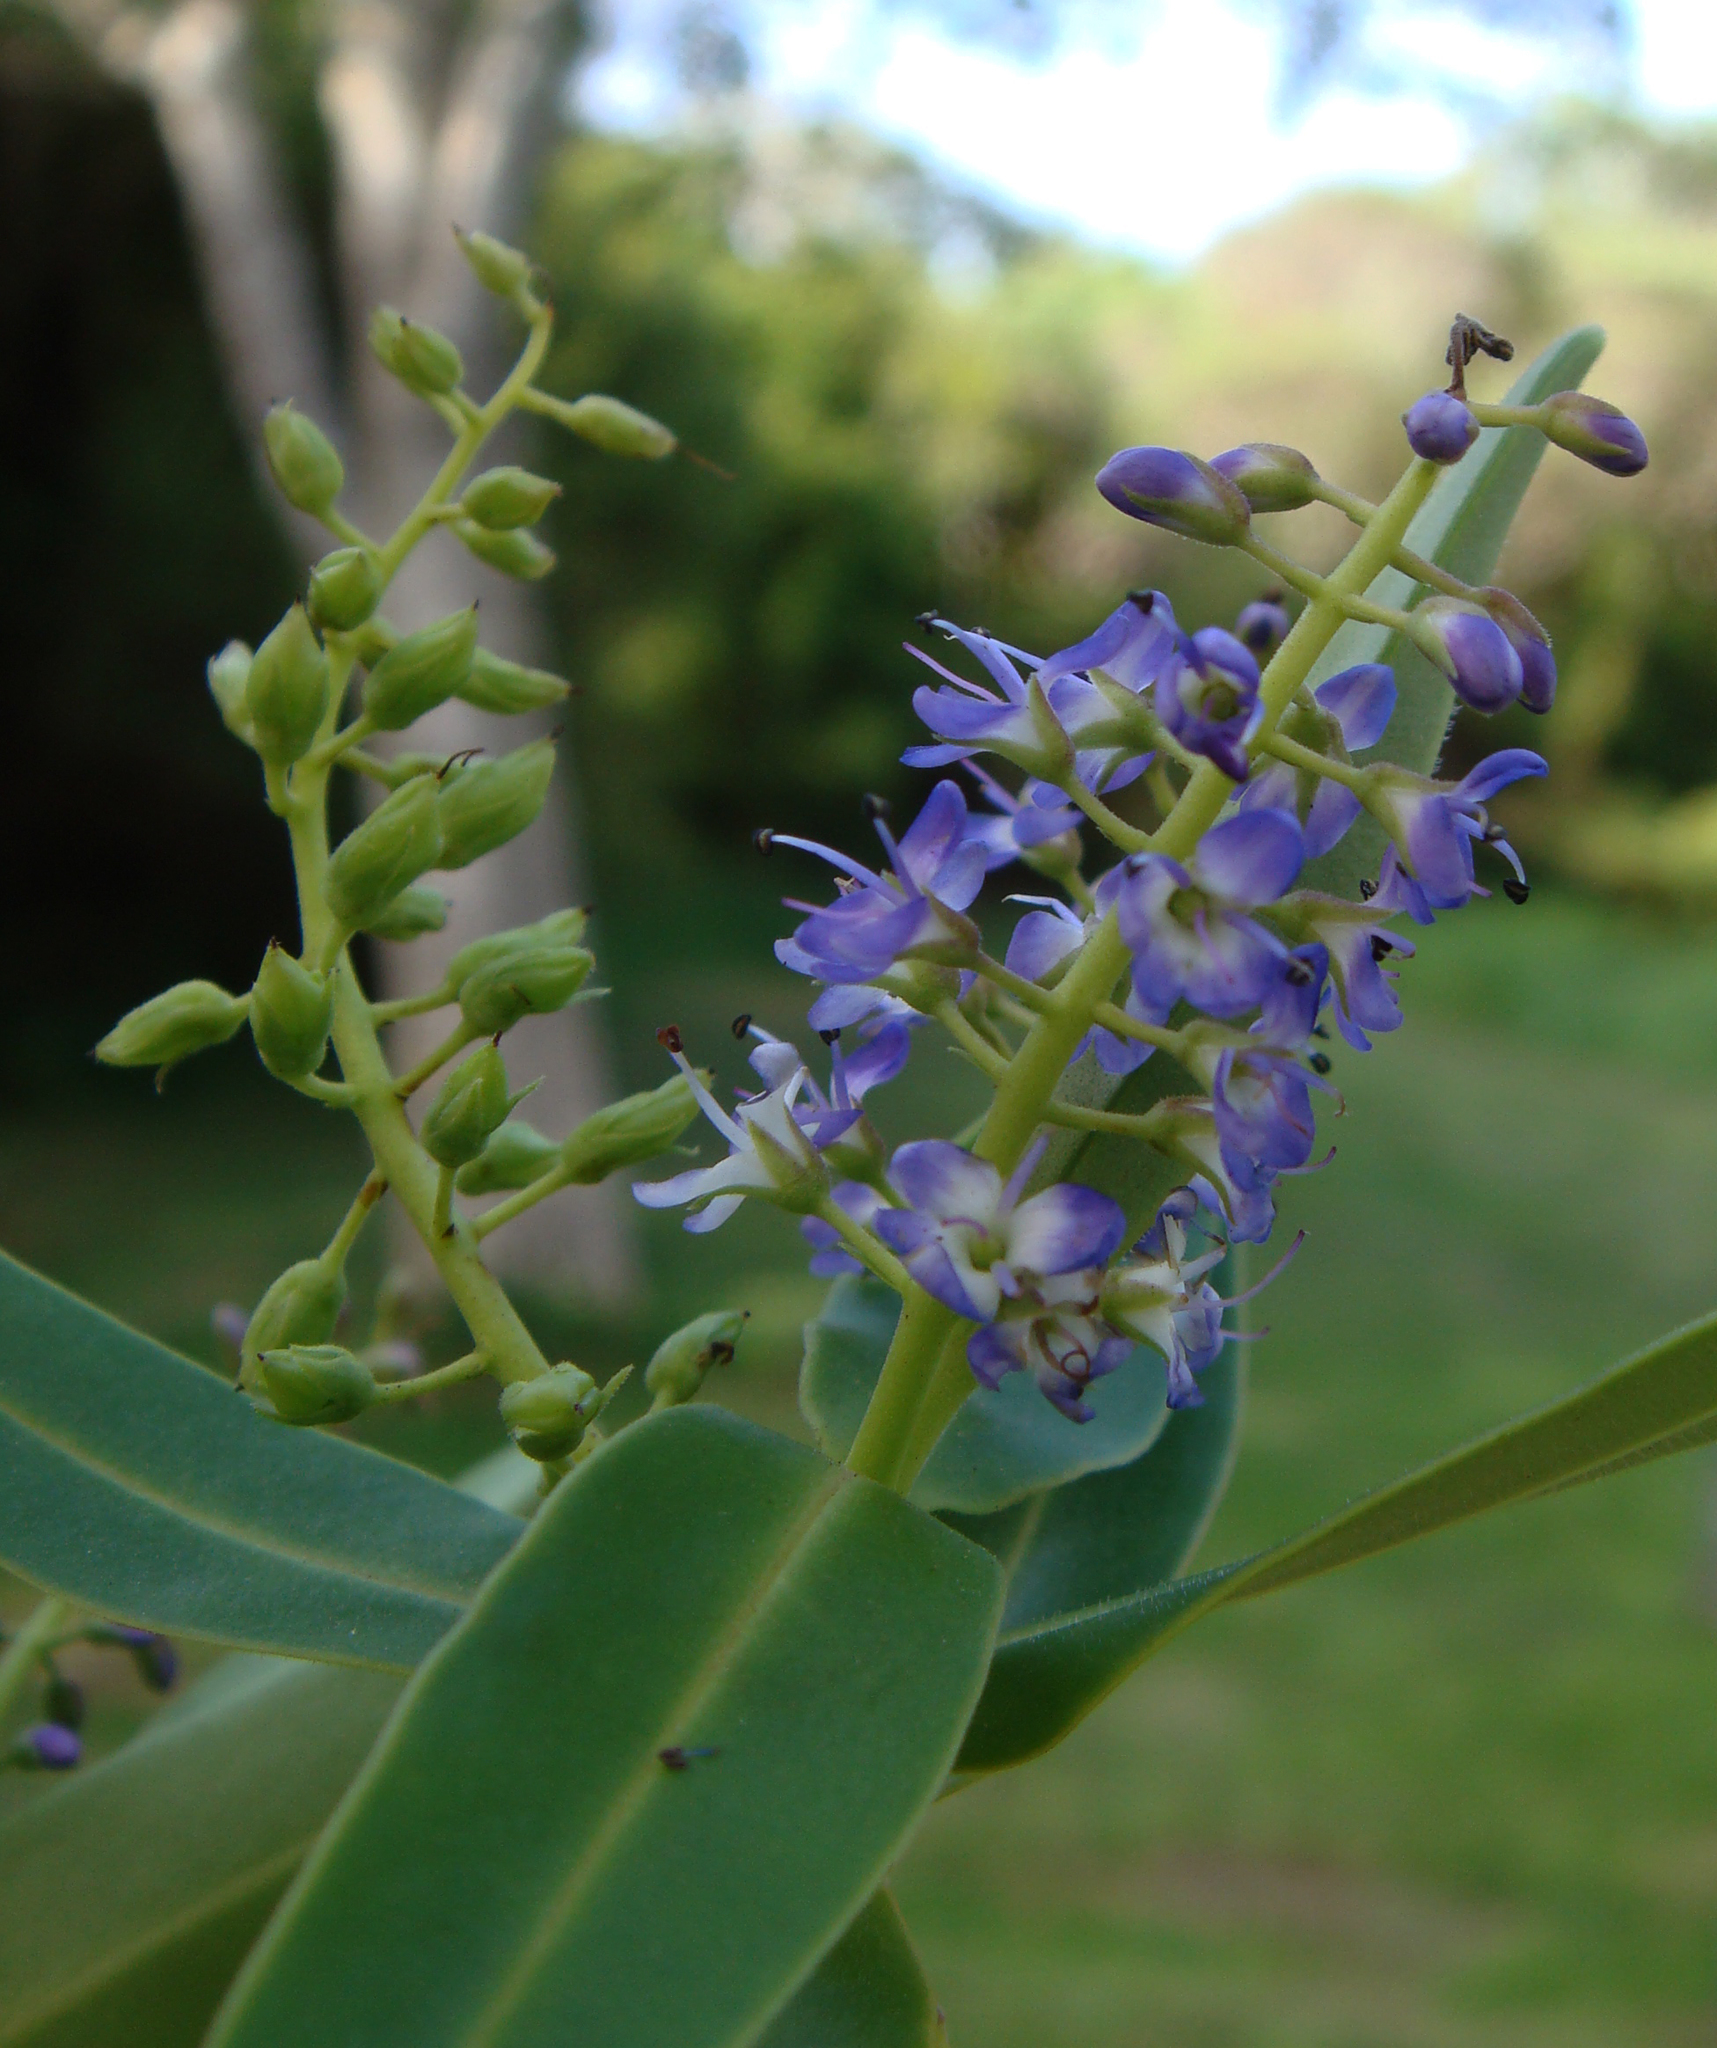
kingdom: Plantae
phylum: Tracheophyta
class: Magnoliopsida
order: Lamiales
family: Plantaginaceae
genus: Veronica
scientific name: Veronica barkeri
